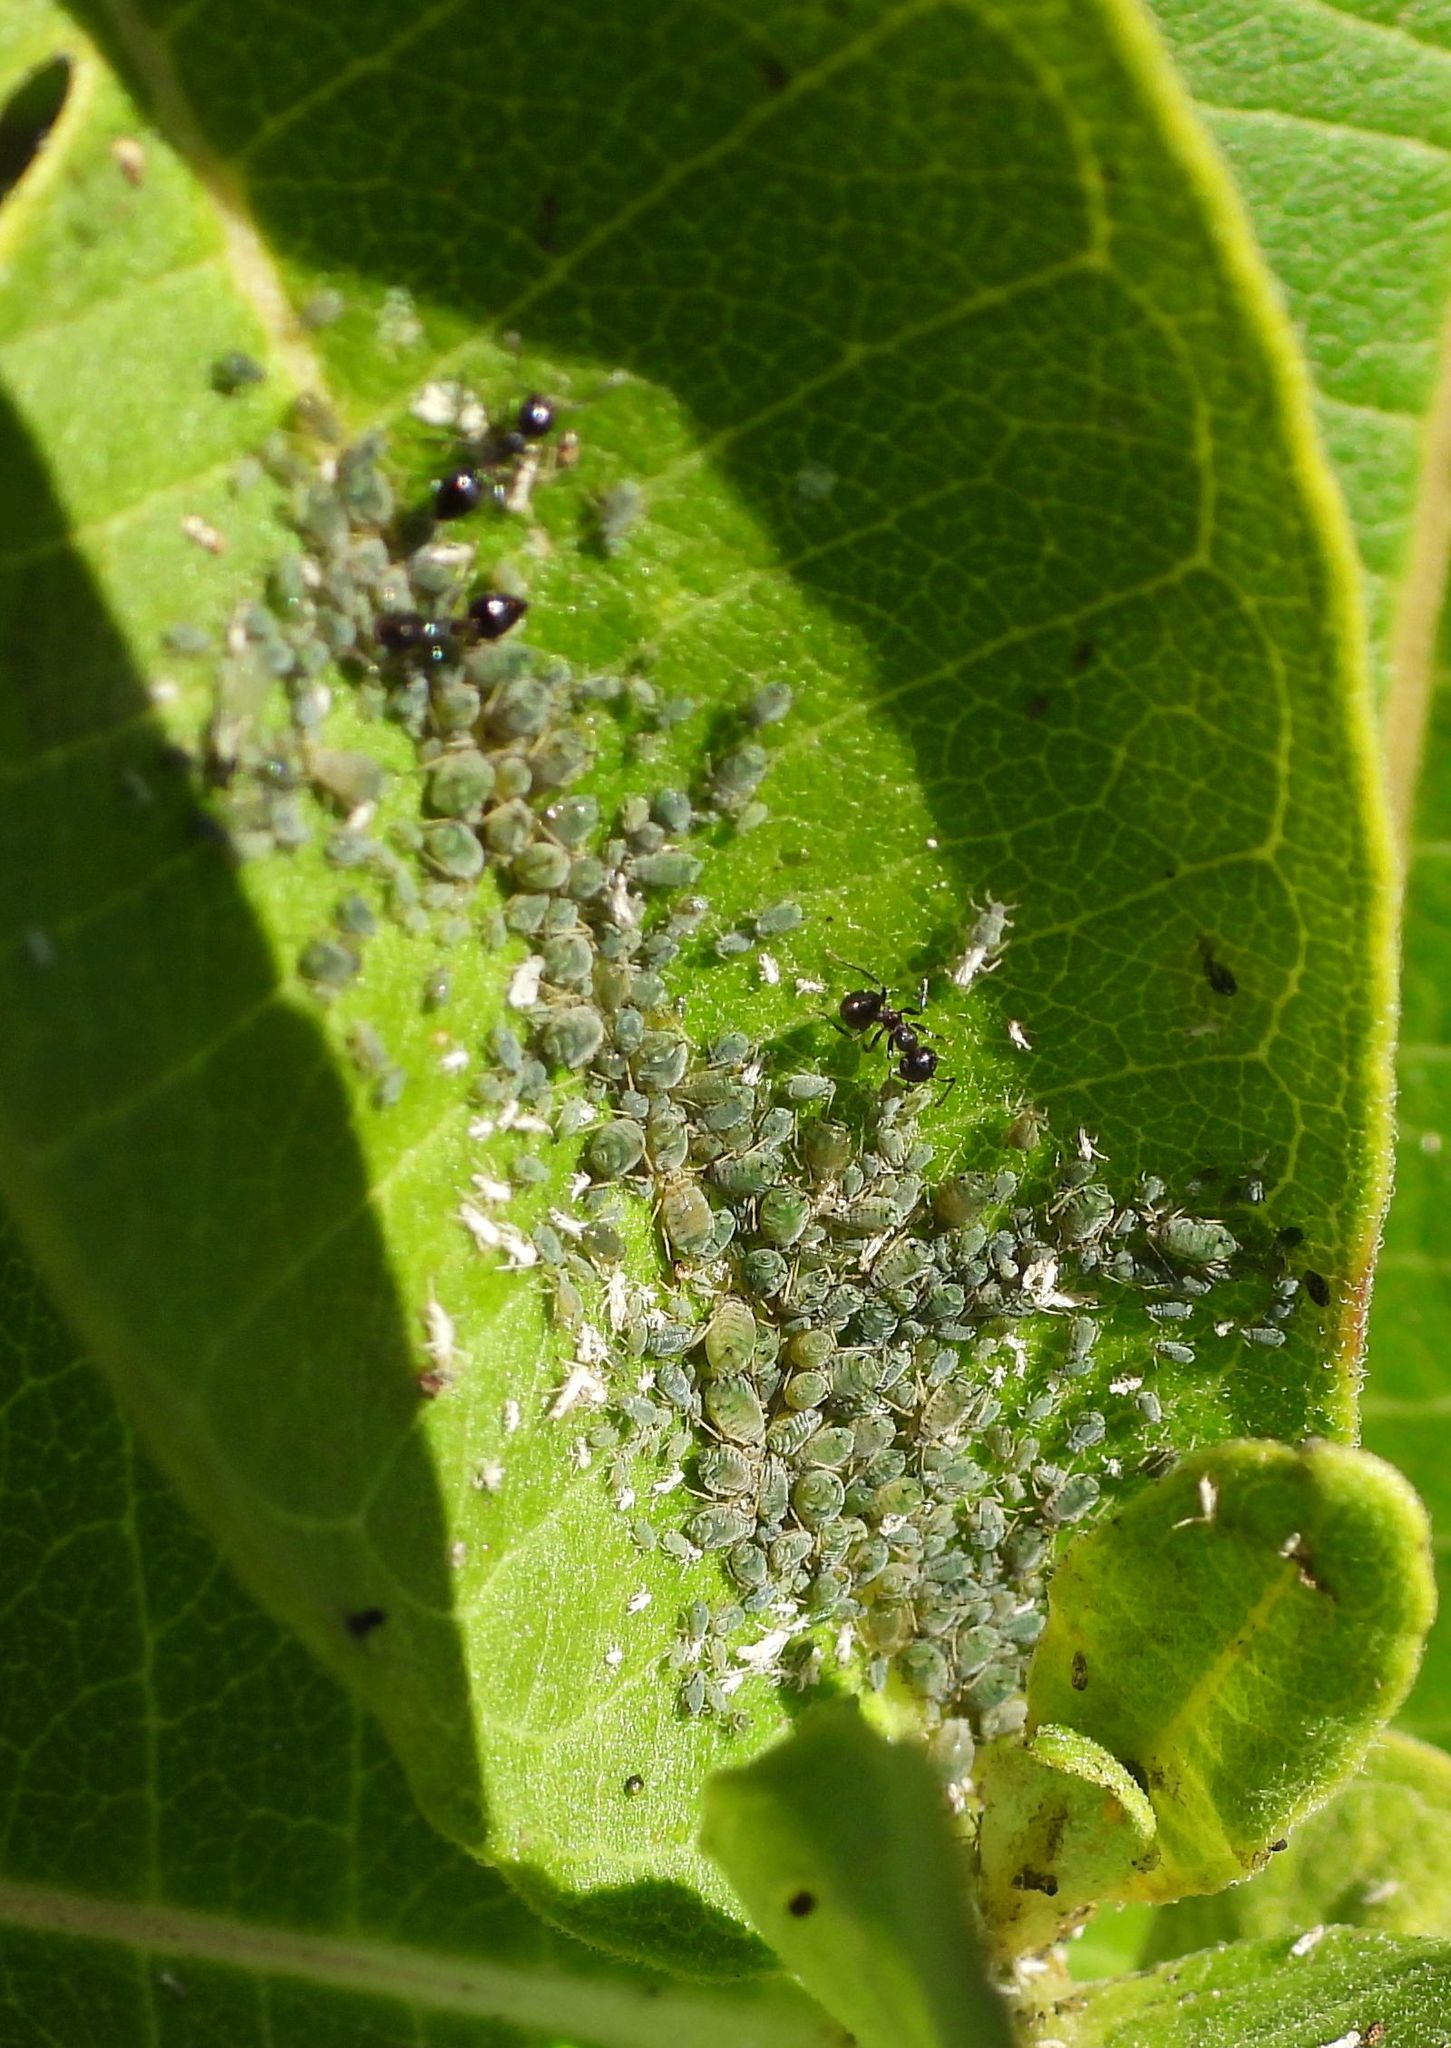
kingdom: Animalia
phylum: Arthropoda
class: Insecta
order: Hemiptera
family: Aphididae
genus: Aphis
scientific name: Aphis
